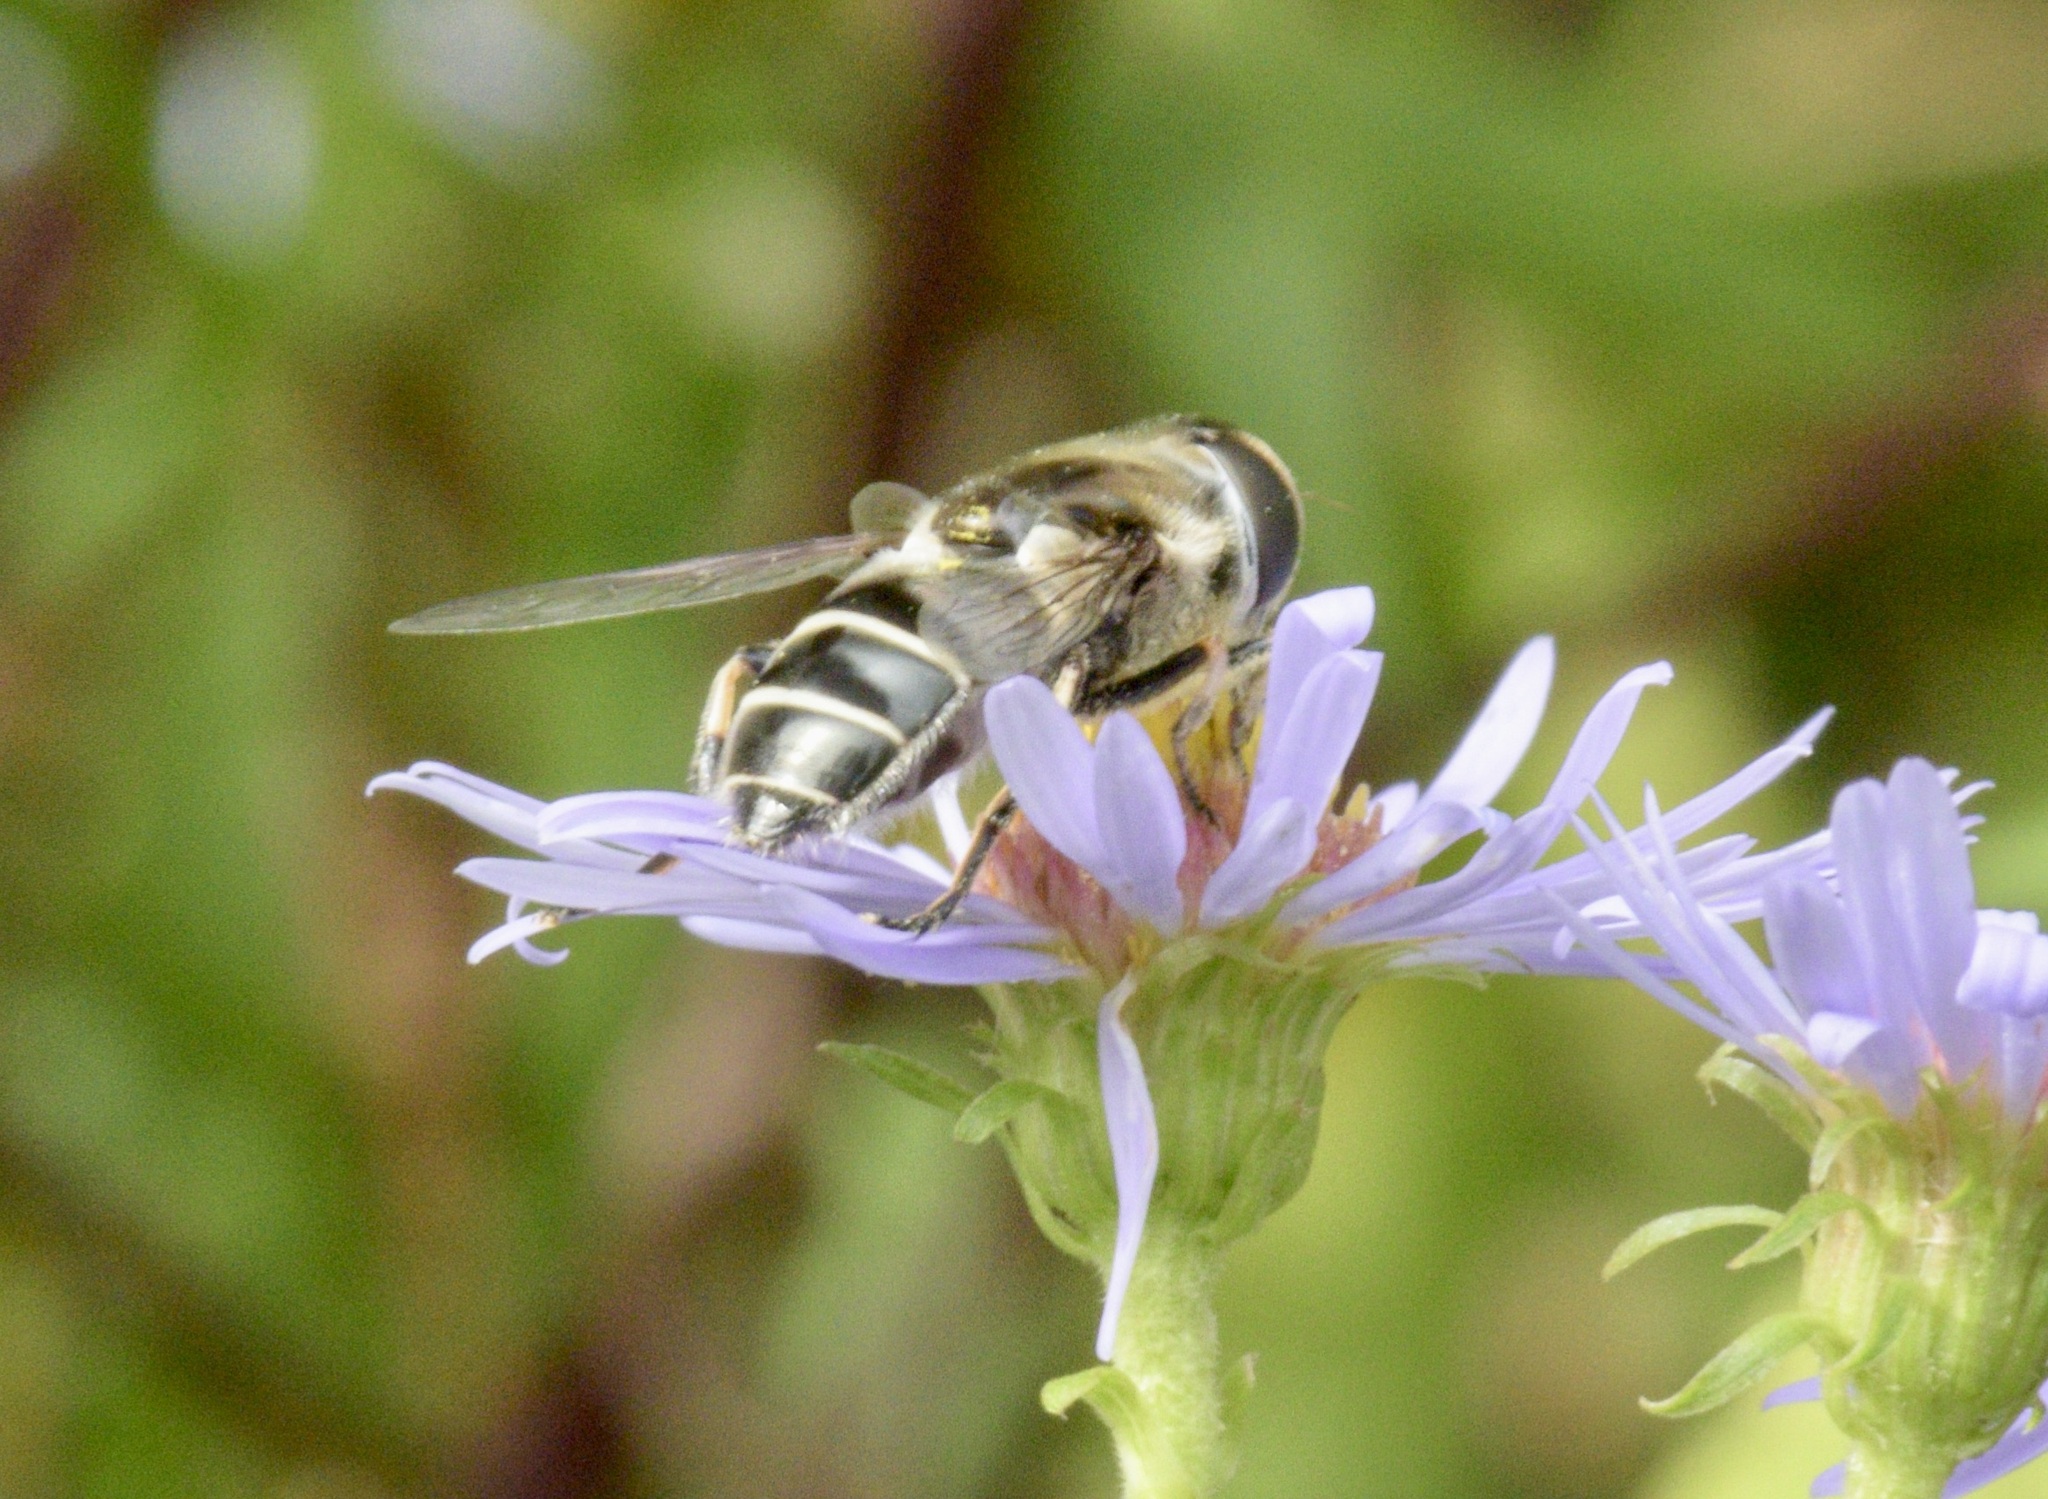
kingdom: Animalia
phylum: Arthropoda
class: Insecta
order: Diptera
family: Syrphidae
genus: Eristalis
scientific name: Eristalis dimidiata
